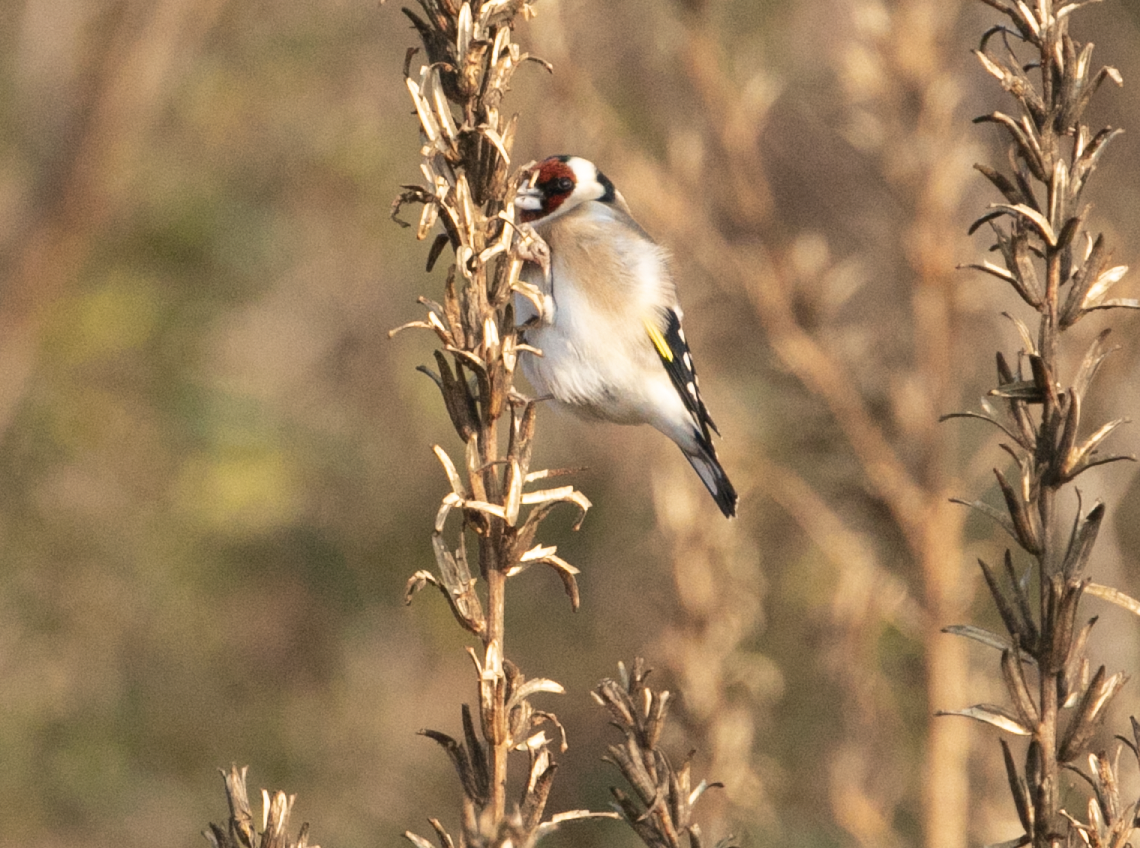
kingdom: Animalia
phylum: Chordata
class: Aves
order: Passeriformes
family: Fringillidae
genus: Carduelis
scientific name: Carduelis carduelis
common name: European goldfinch
